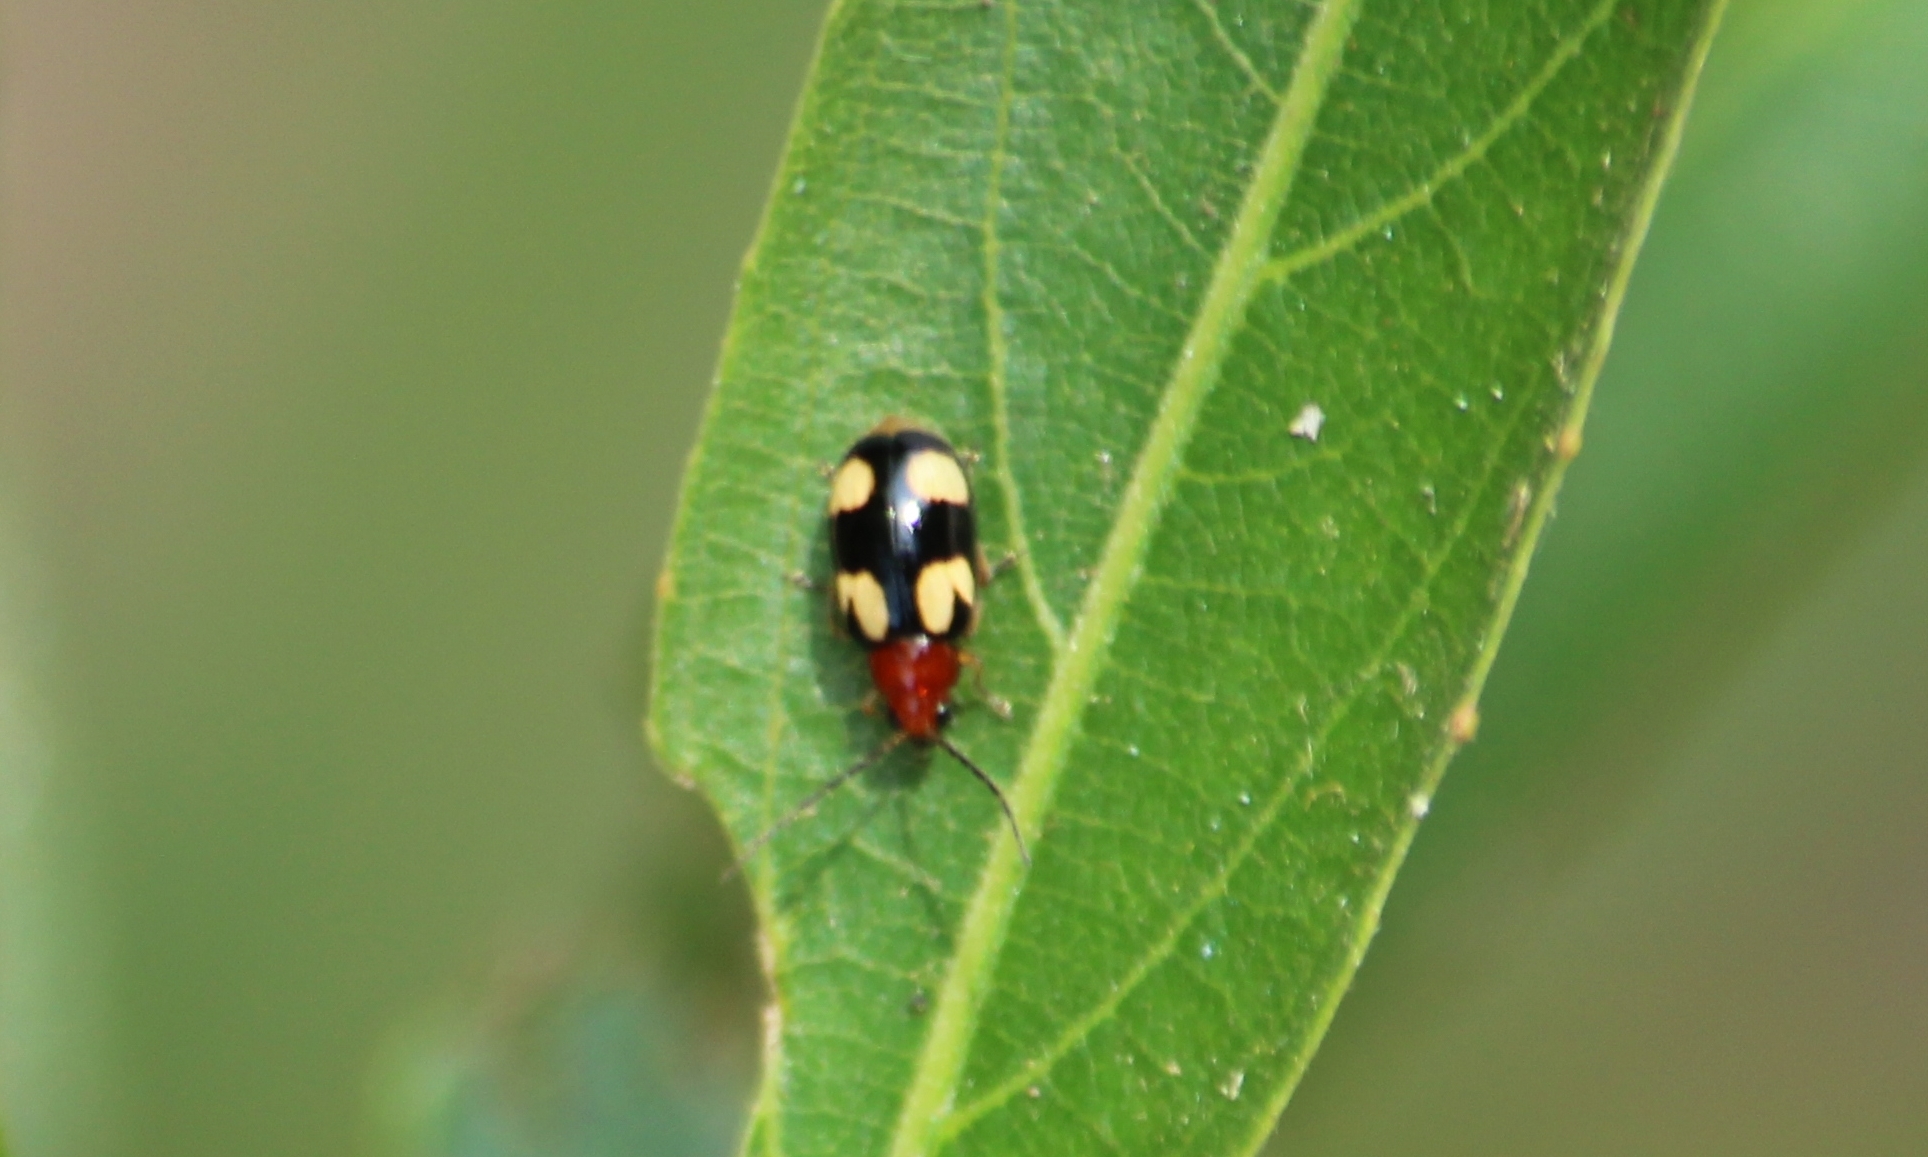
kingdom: Animalia
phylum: Arthropoda
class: Insecta
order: Coleoptera
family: Chrysomelidae
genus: Monolepta
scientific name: Monolepta signata
